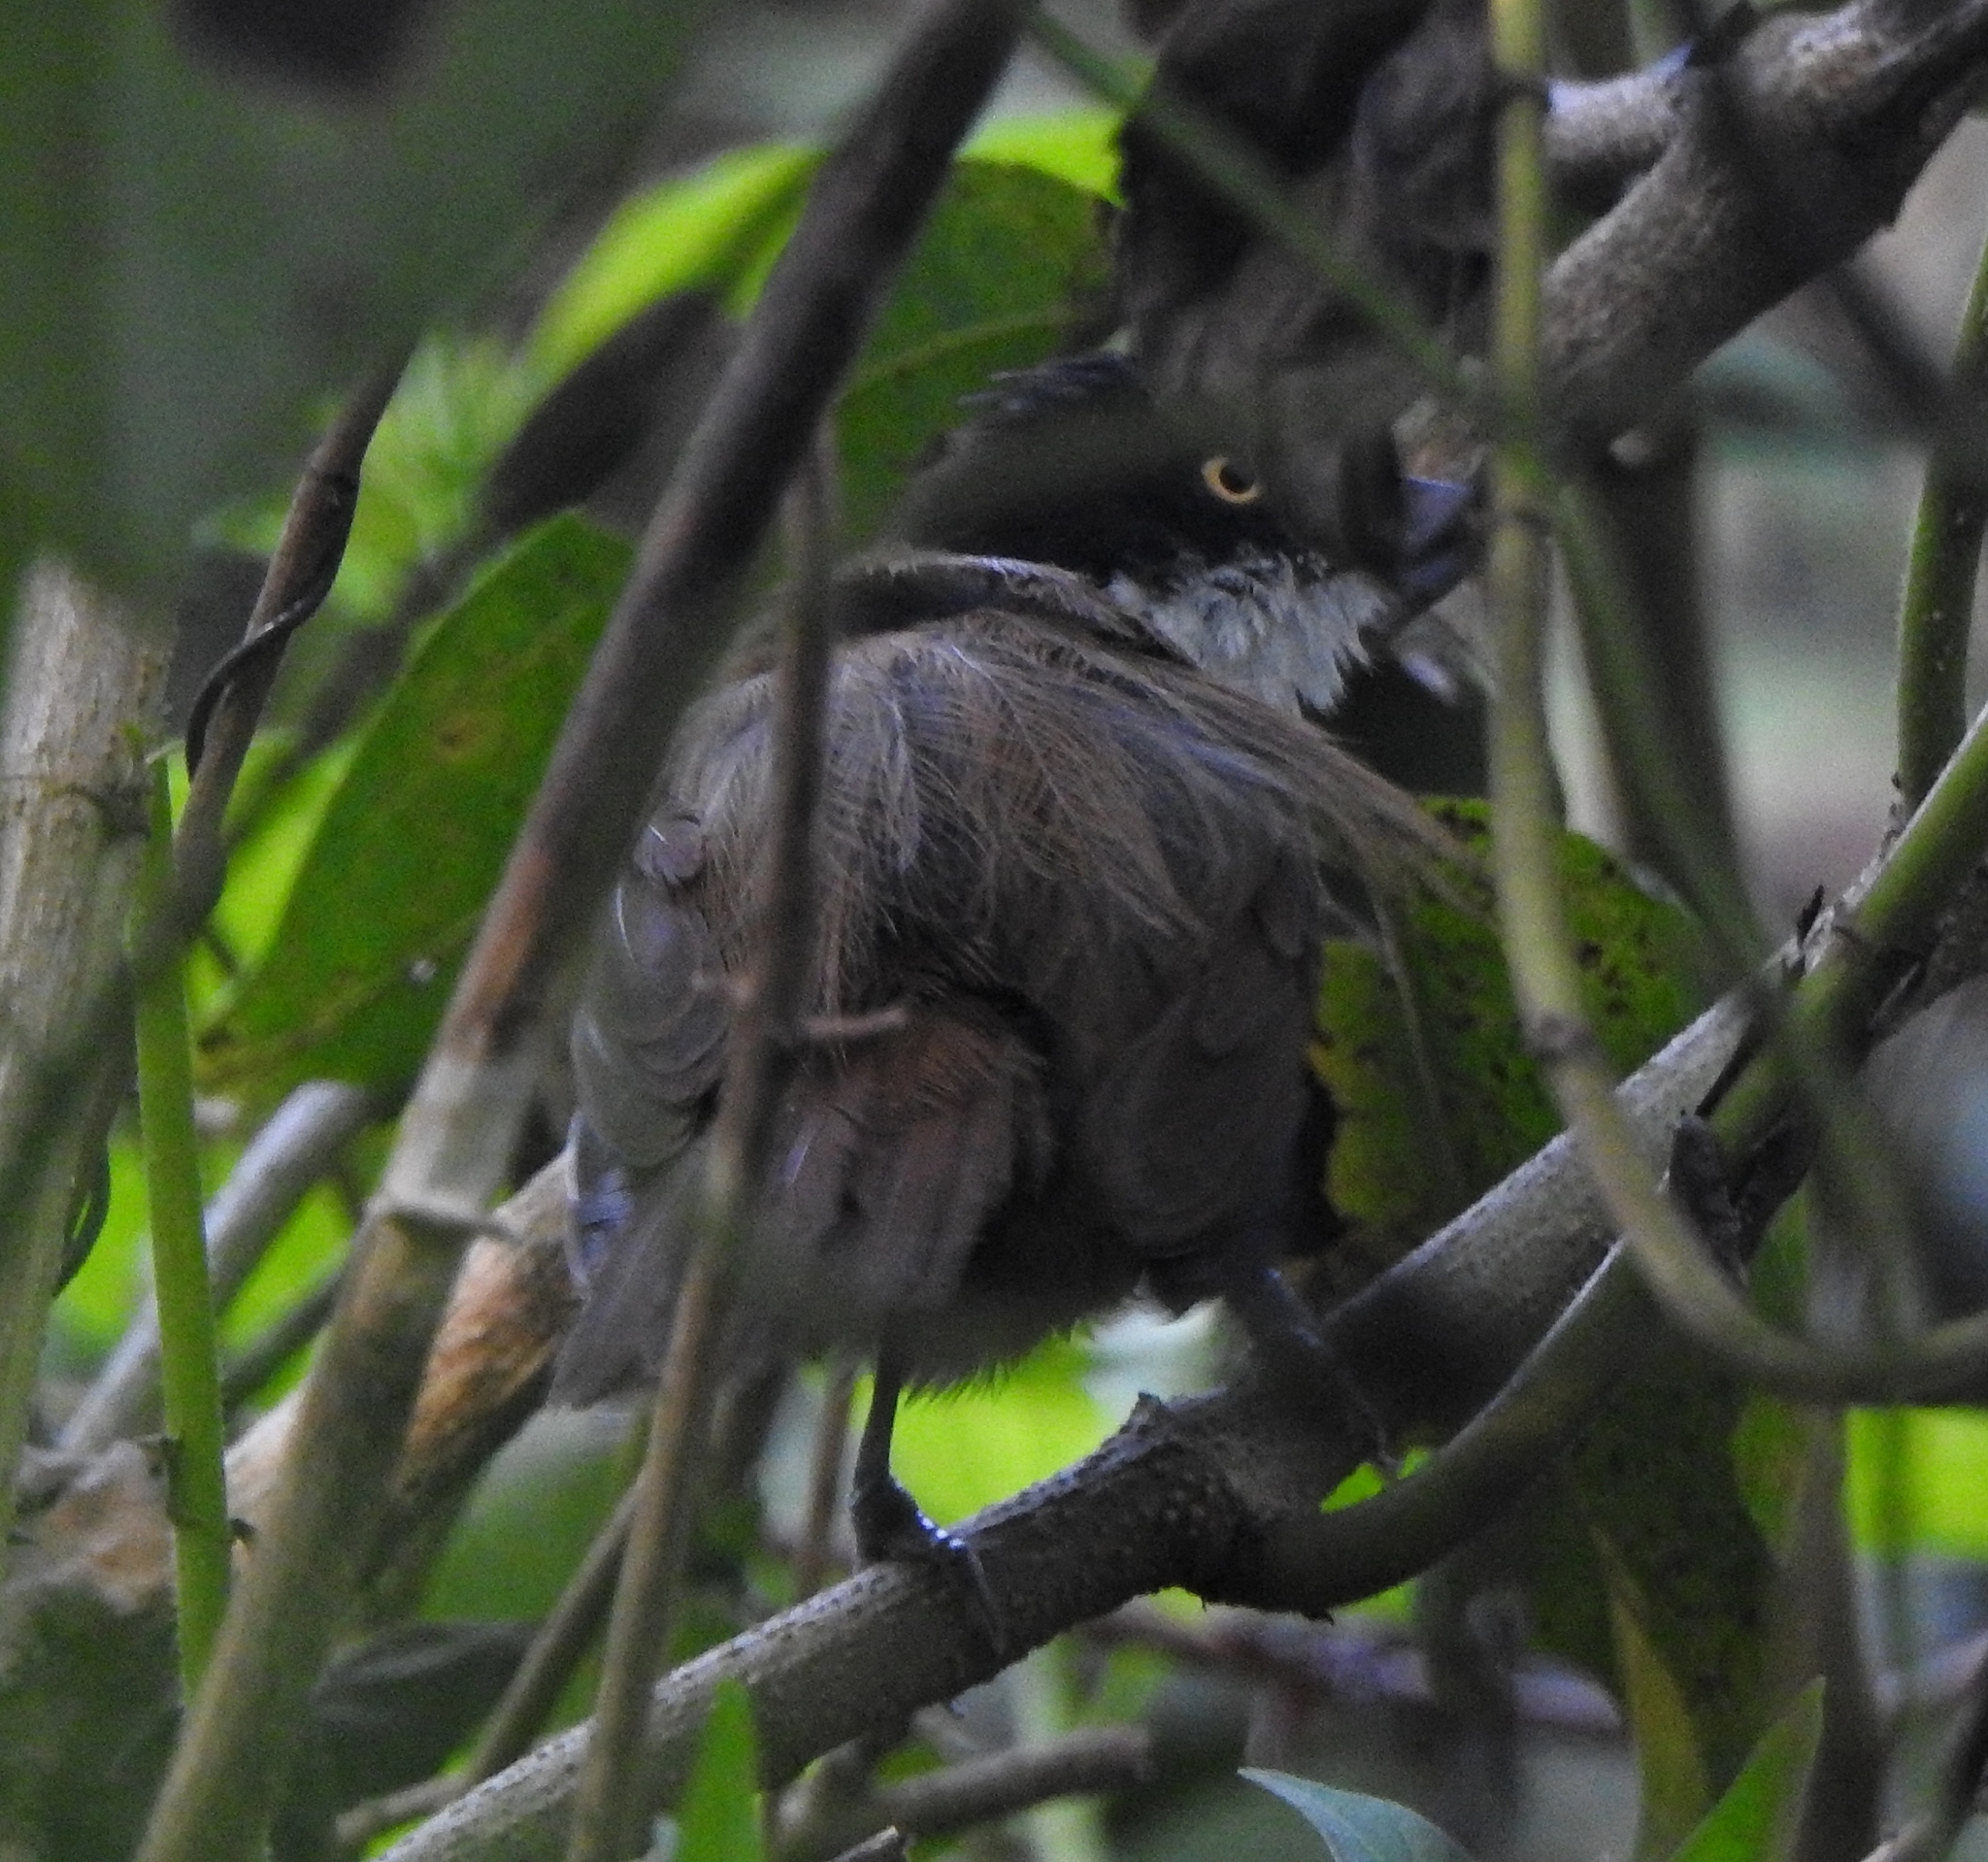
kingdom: Animalia
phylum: Chordata
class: Aves
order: Passeriformes
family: Timaliidae
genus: Rhopocichla
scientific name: Rhopocichla atriceps
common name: Dark-fronted babbler
